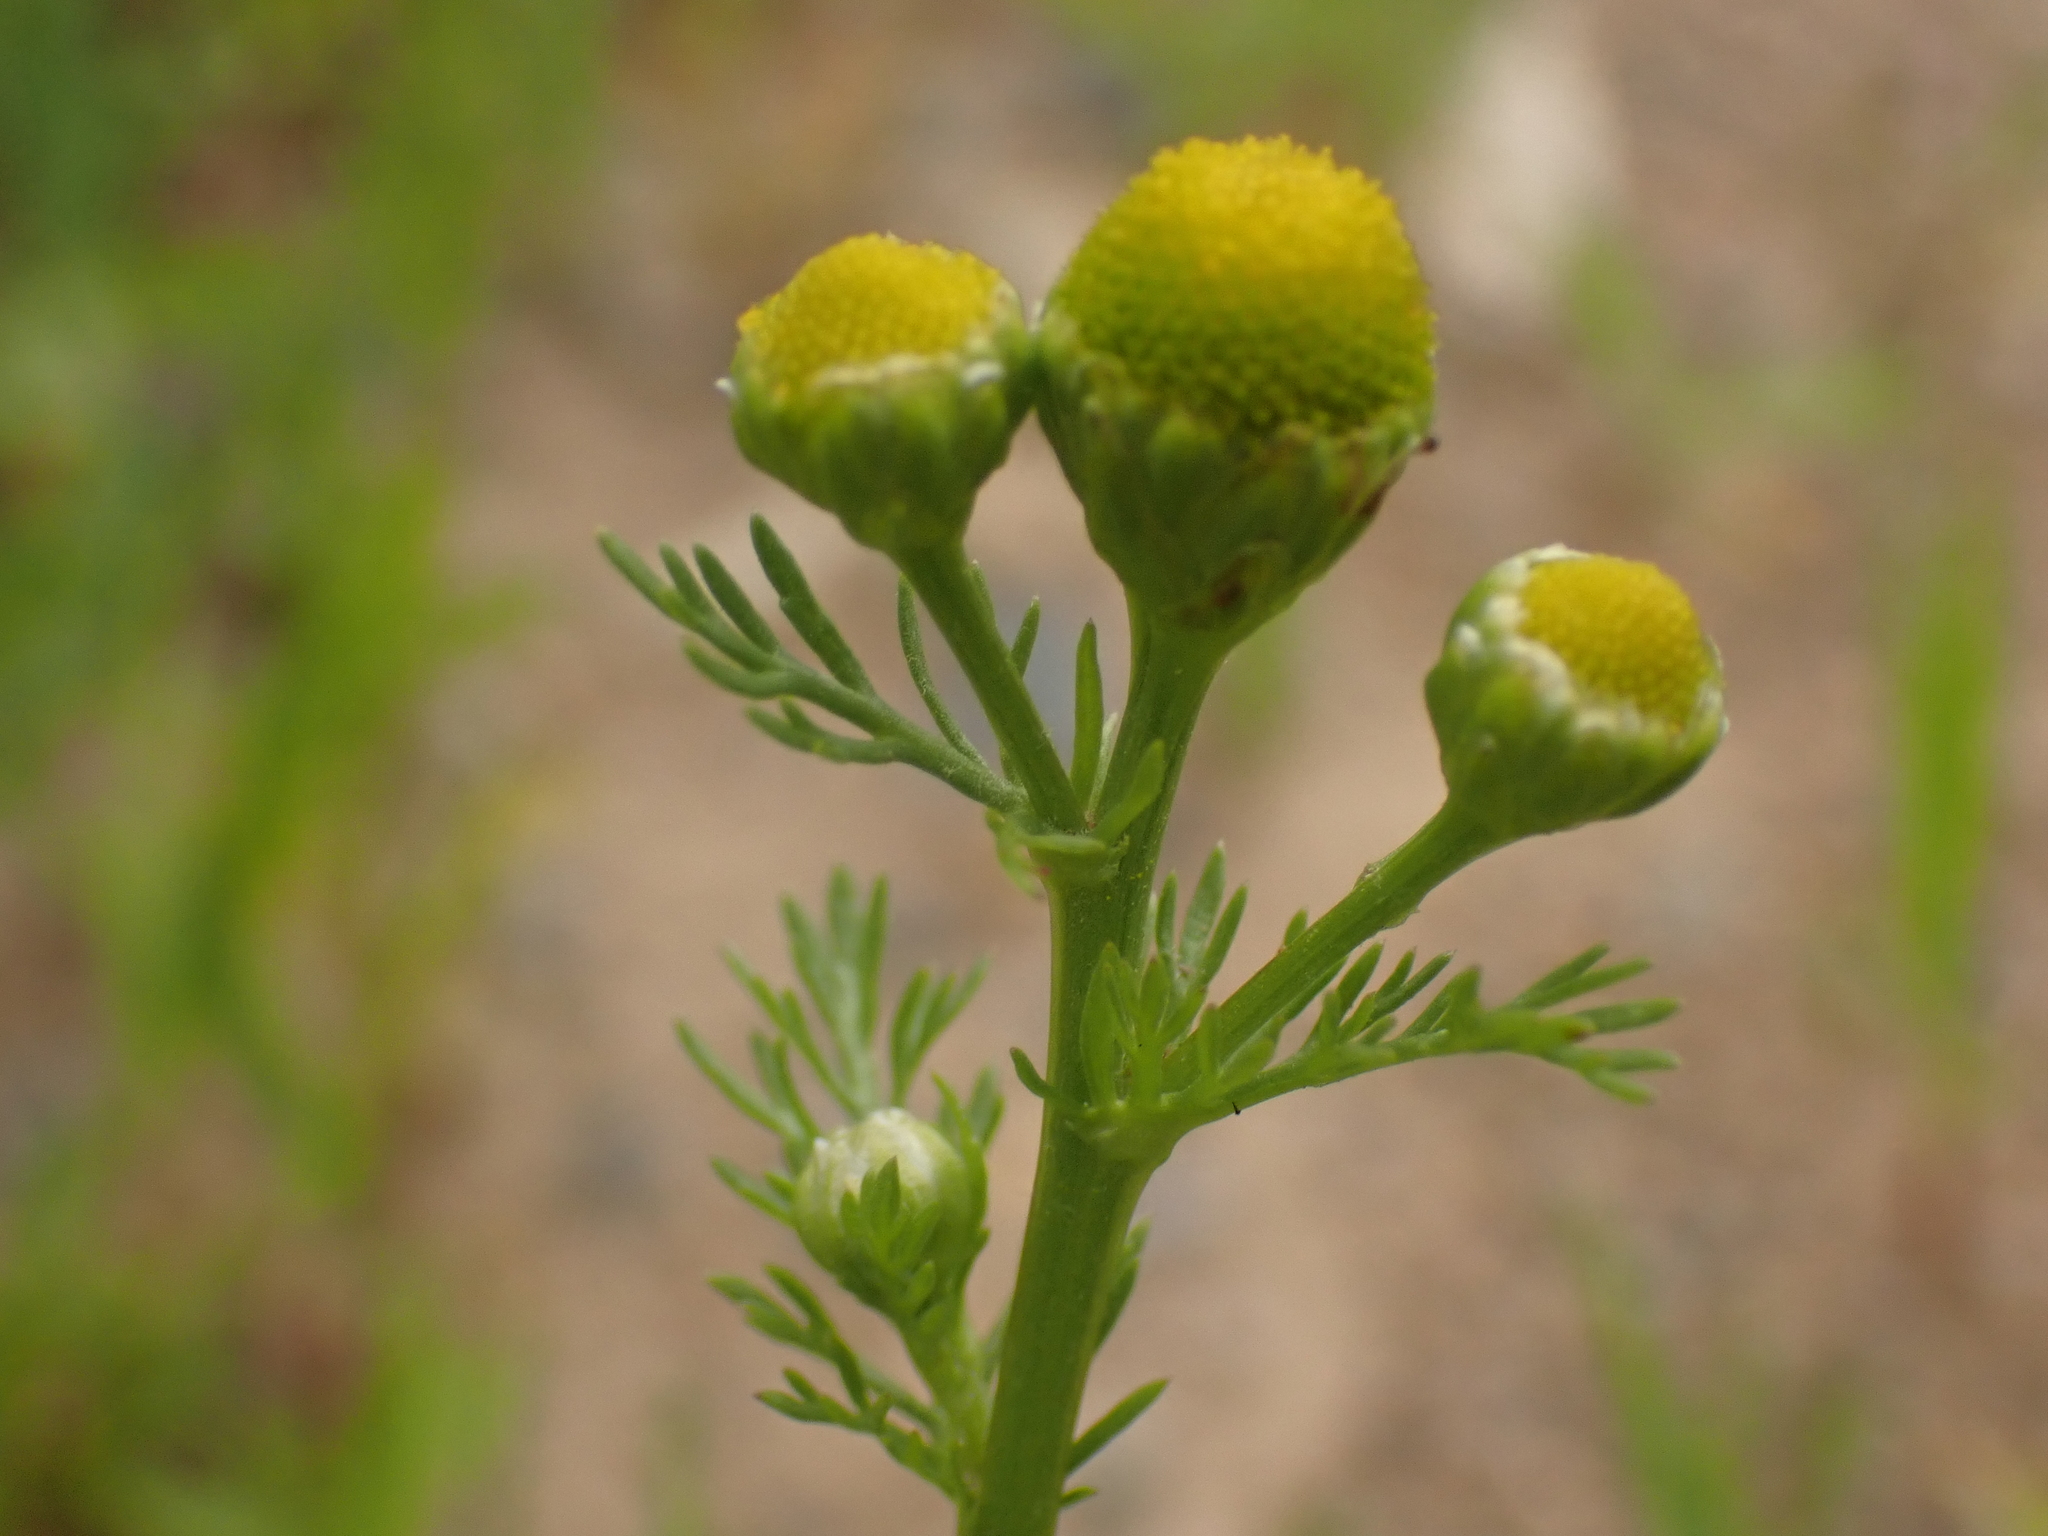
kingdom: Plantae
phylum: Tracheophyta
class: Magnoliopsida
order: Asterales
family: Asteraceae
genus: Matricaria
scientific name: Matricaria discoidea
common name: Disc mayweed
